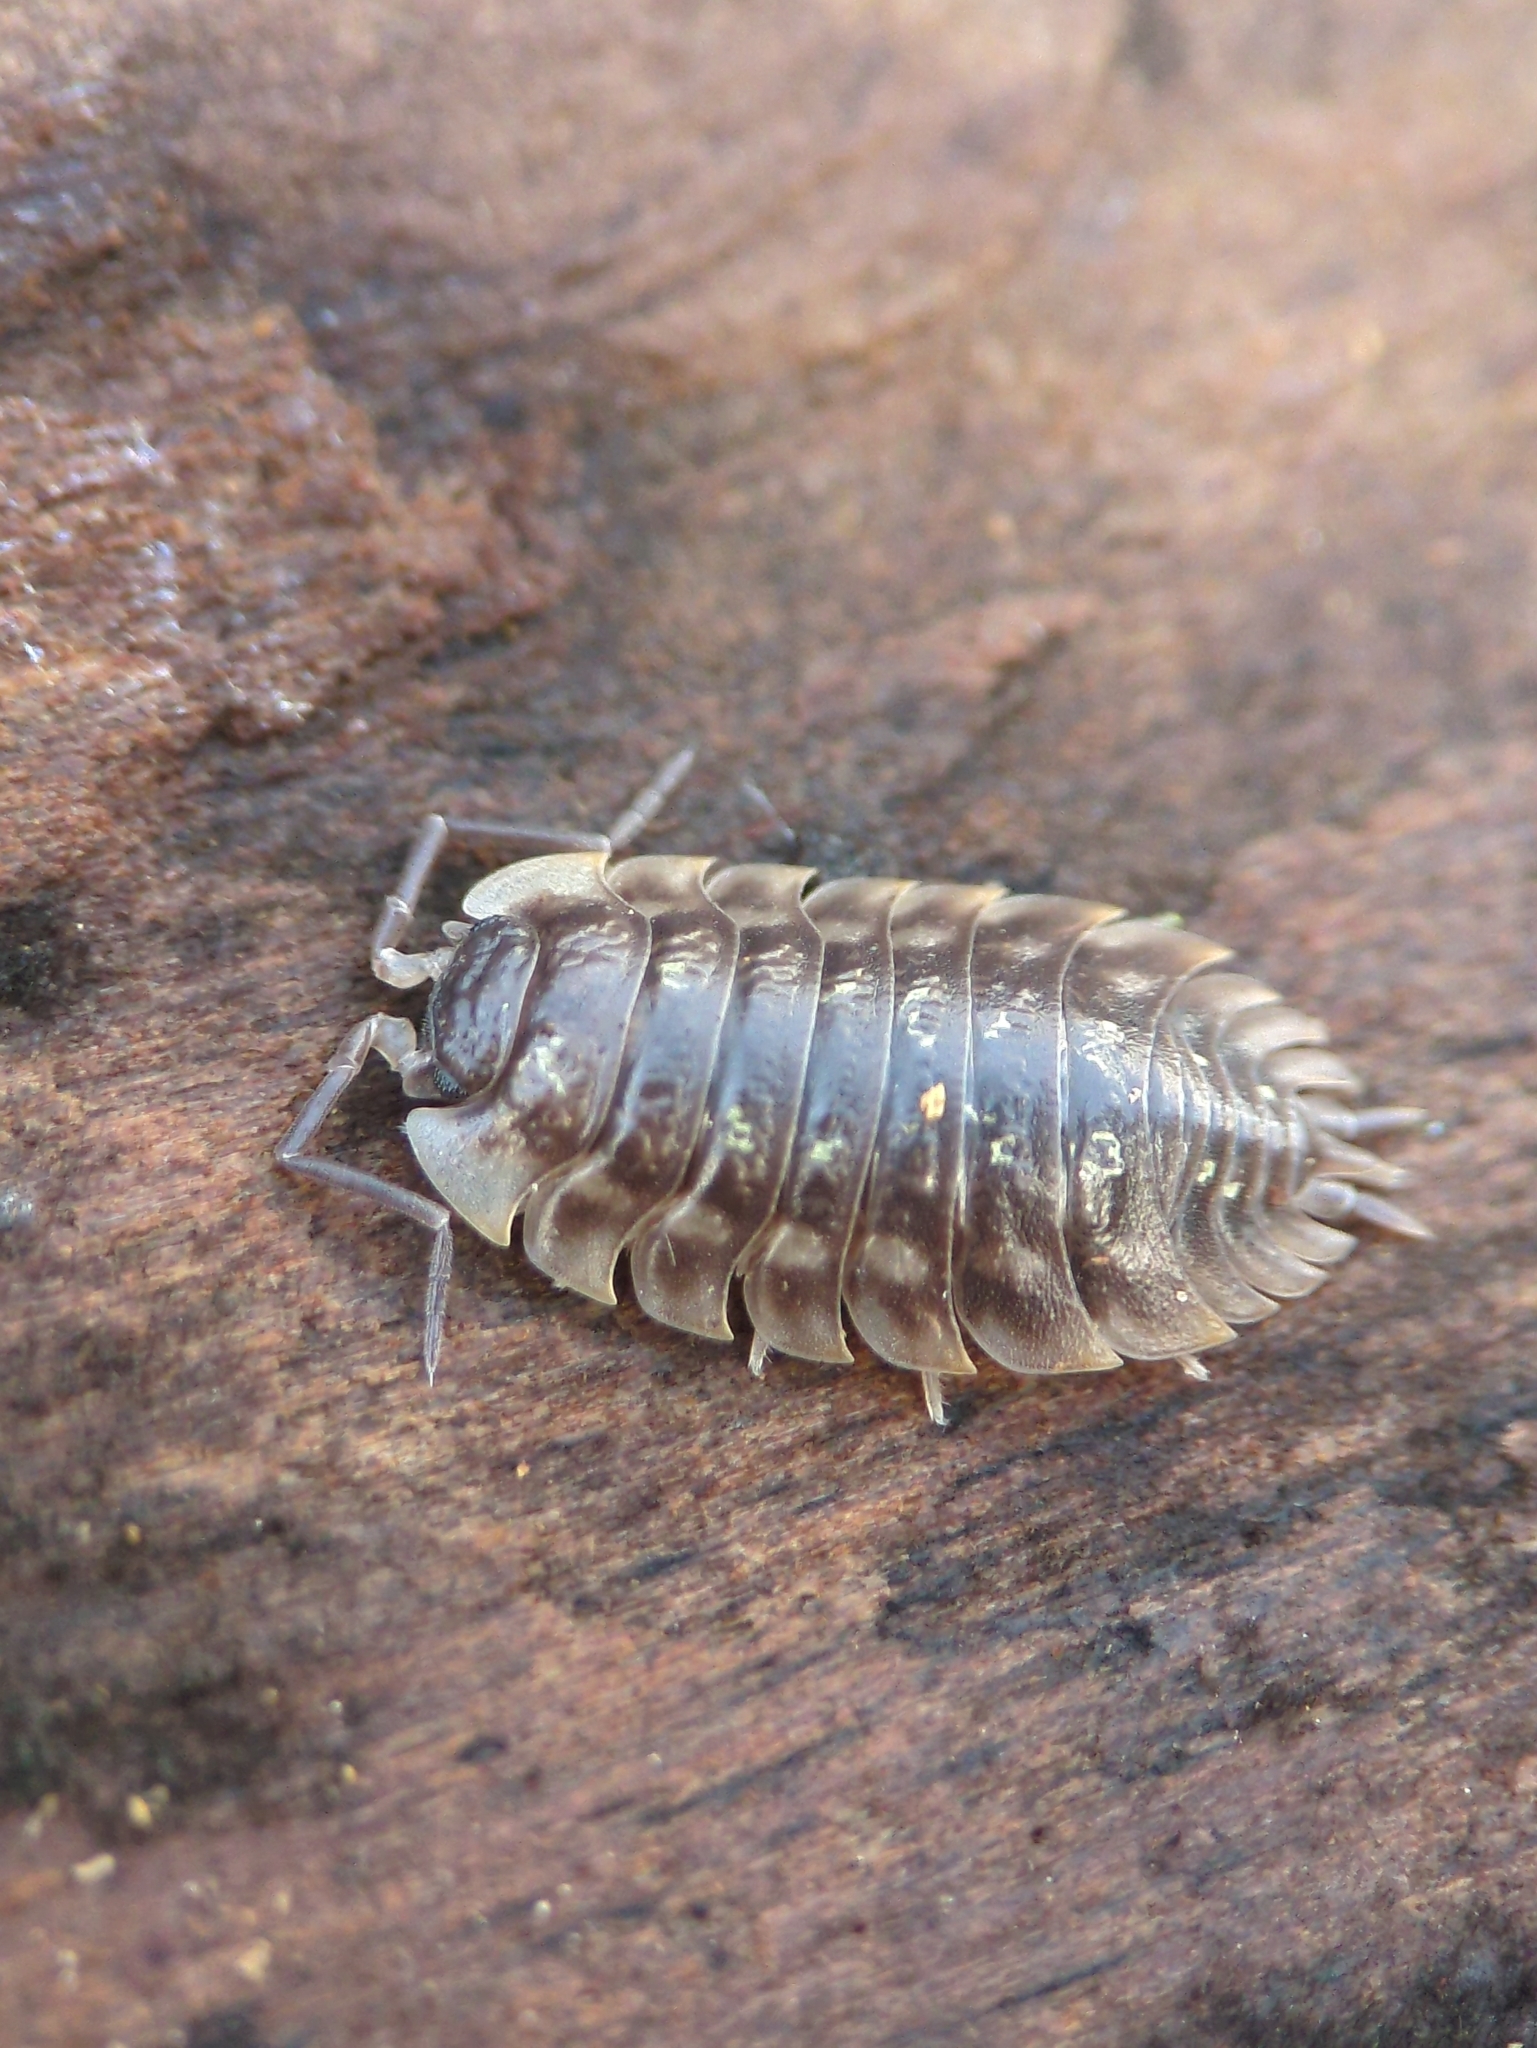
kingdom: Animalia
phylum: Arthropoda
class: Malacostraca
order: Isopoda
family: Oniscidae
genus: Oniscus
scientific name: Oniscus asellus
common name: Common shiny woodlouse
